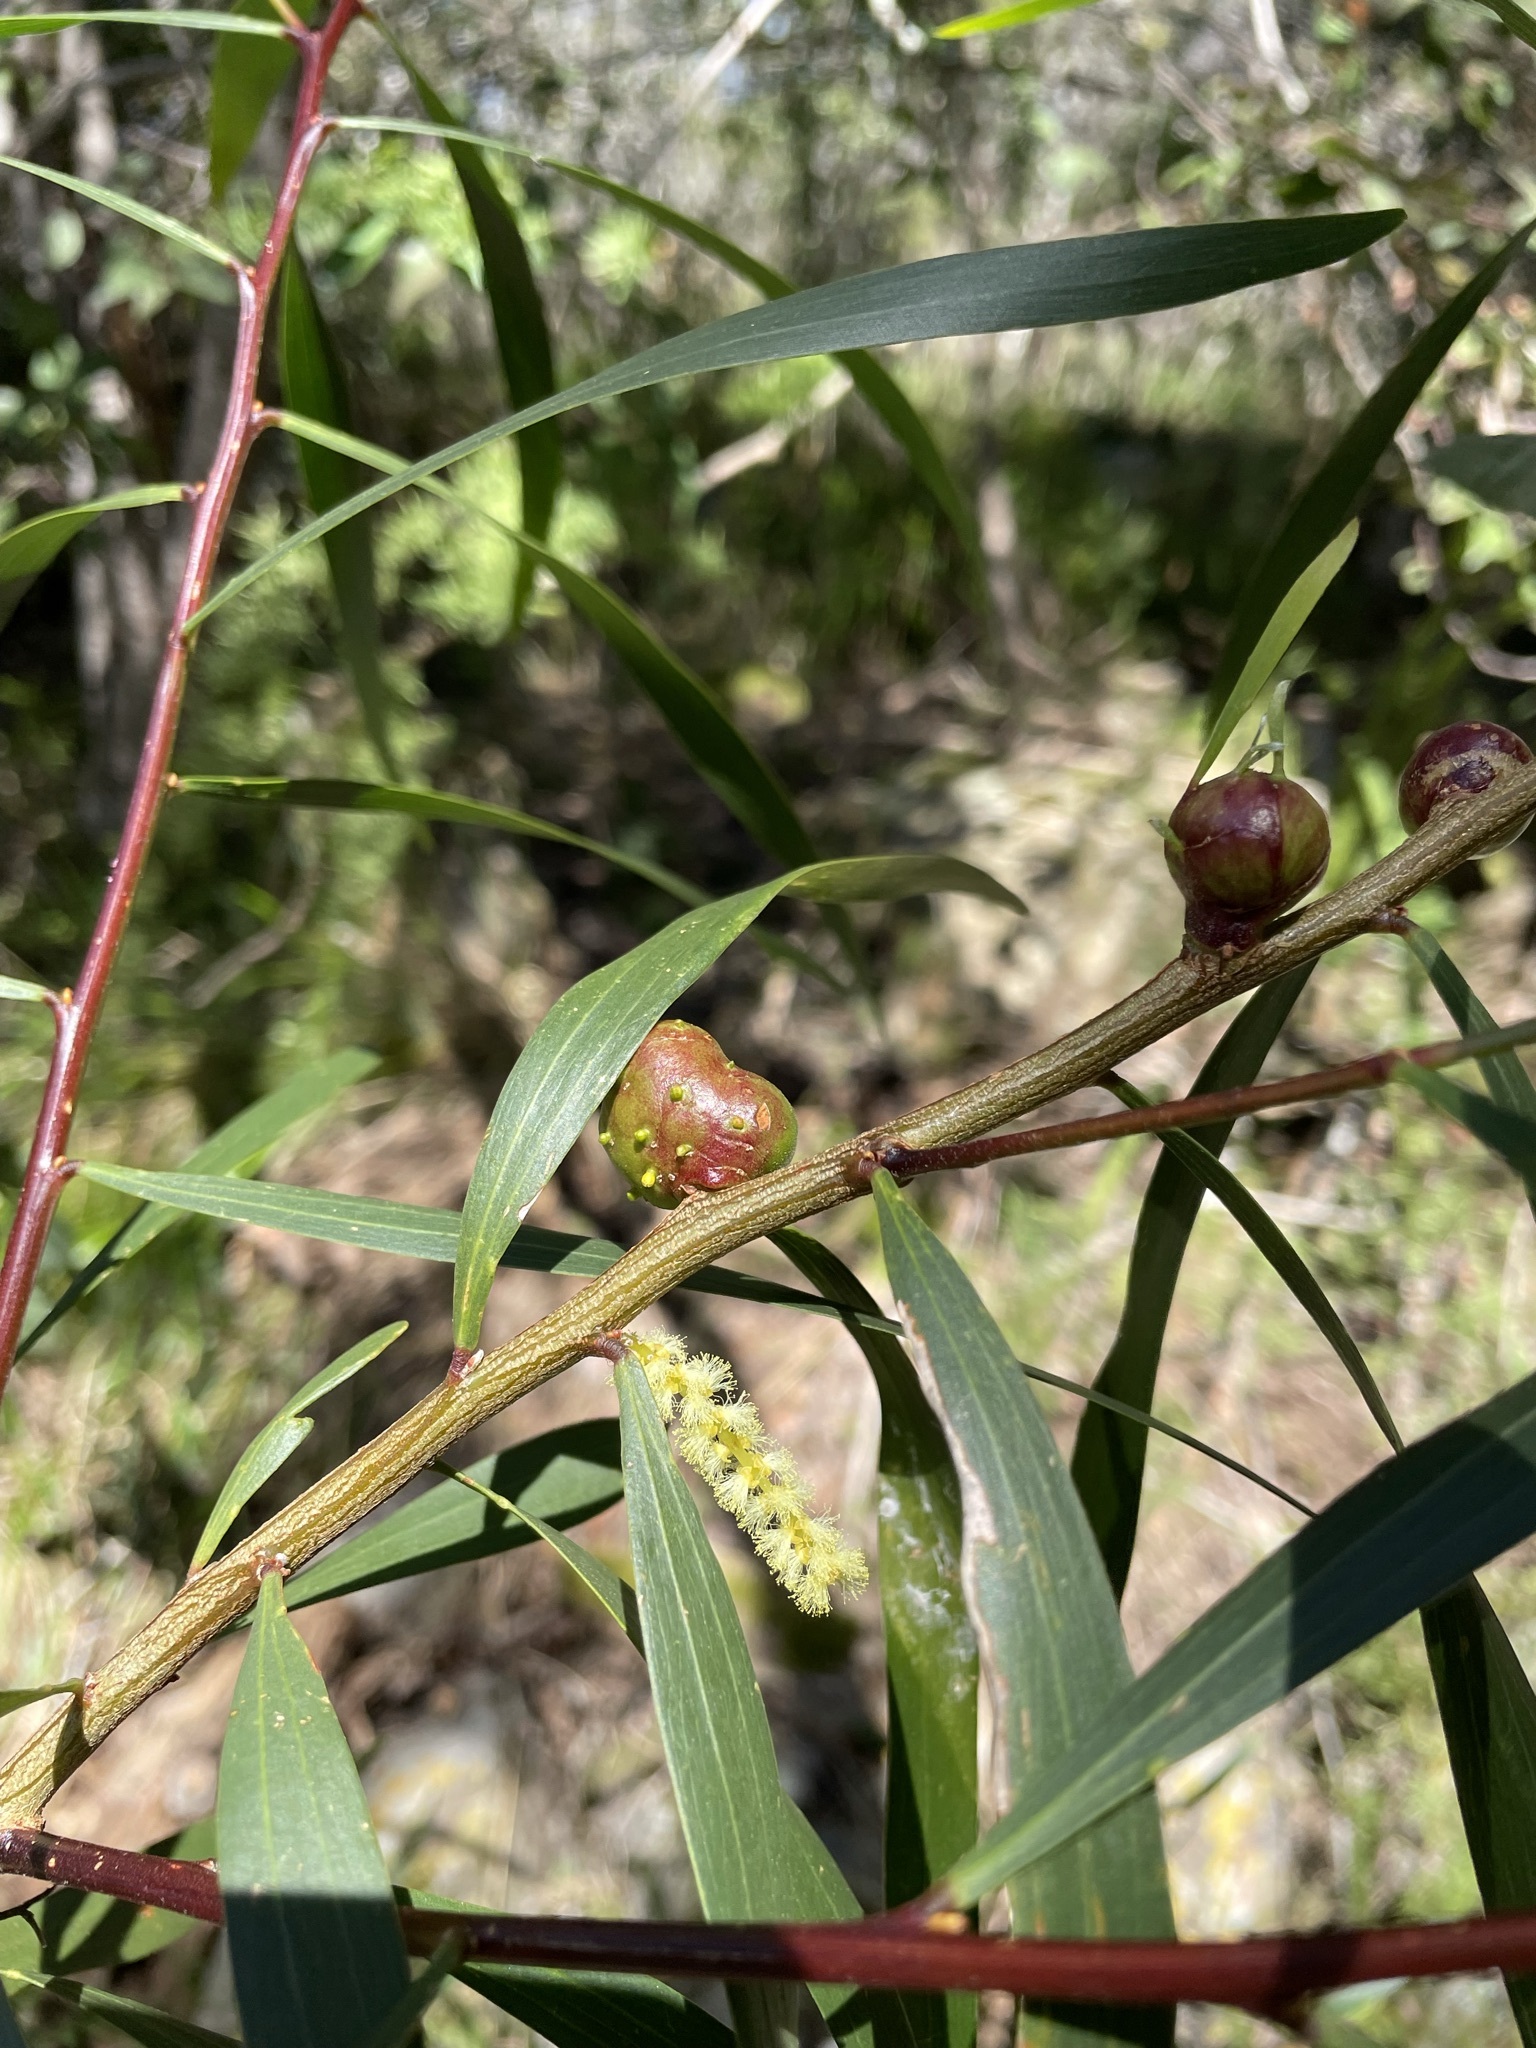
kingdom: Plantae
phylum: Tracheophyta
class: Magnoliopsida
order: Fabales
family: Fabaceae
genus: Acacia
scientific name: Acacia longifolia
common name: Sydney golden wattle
